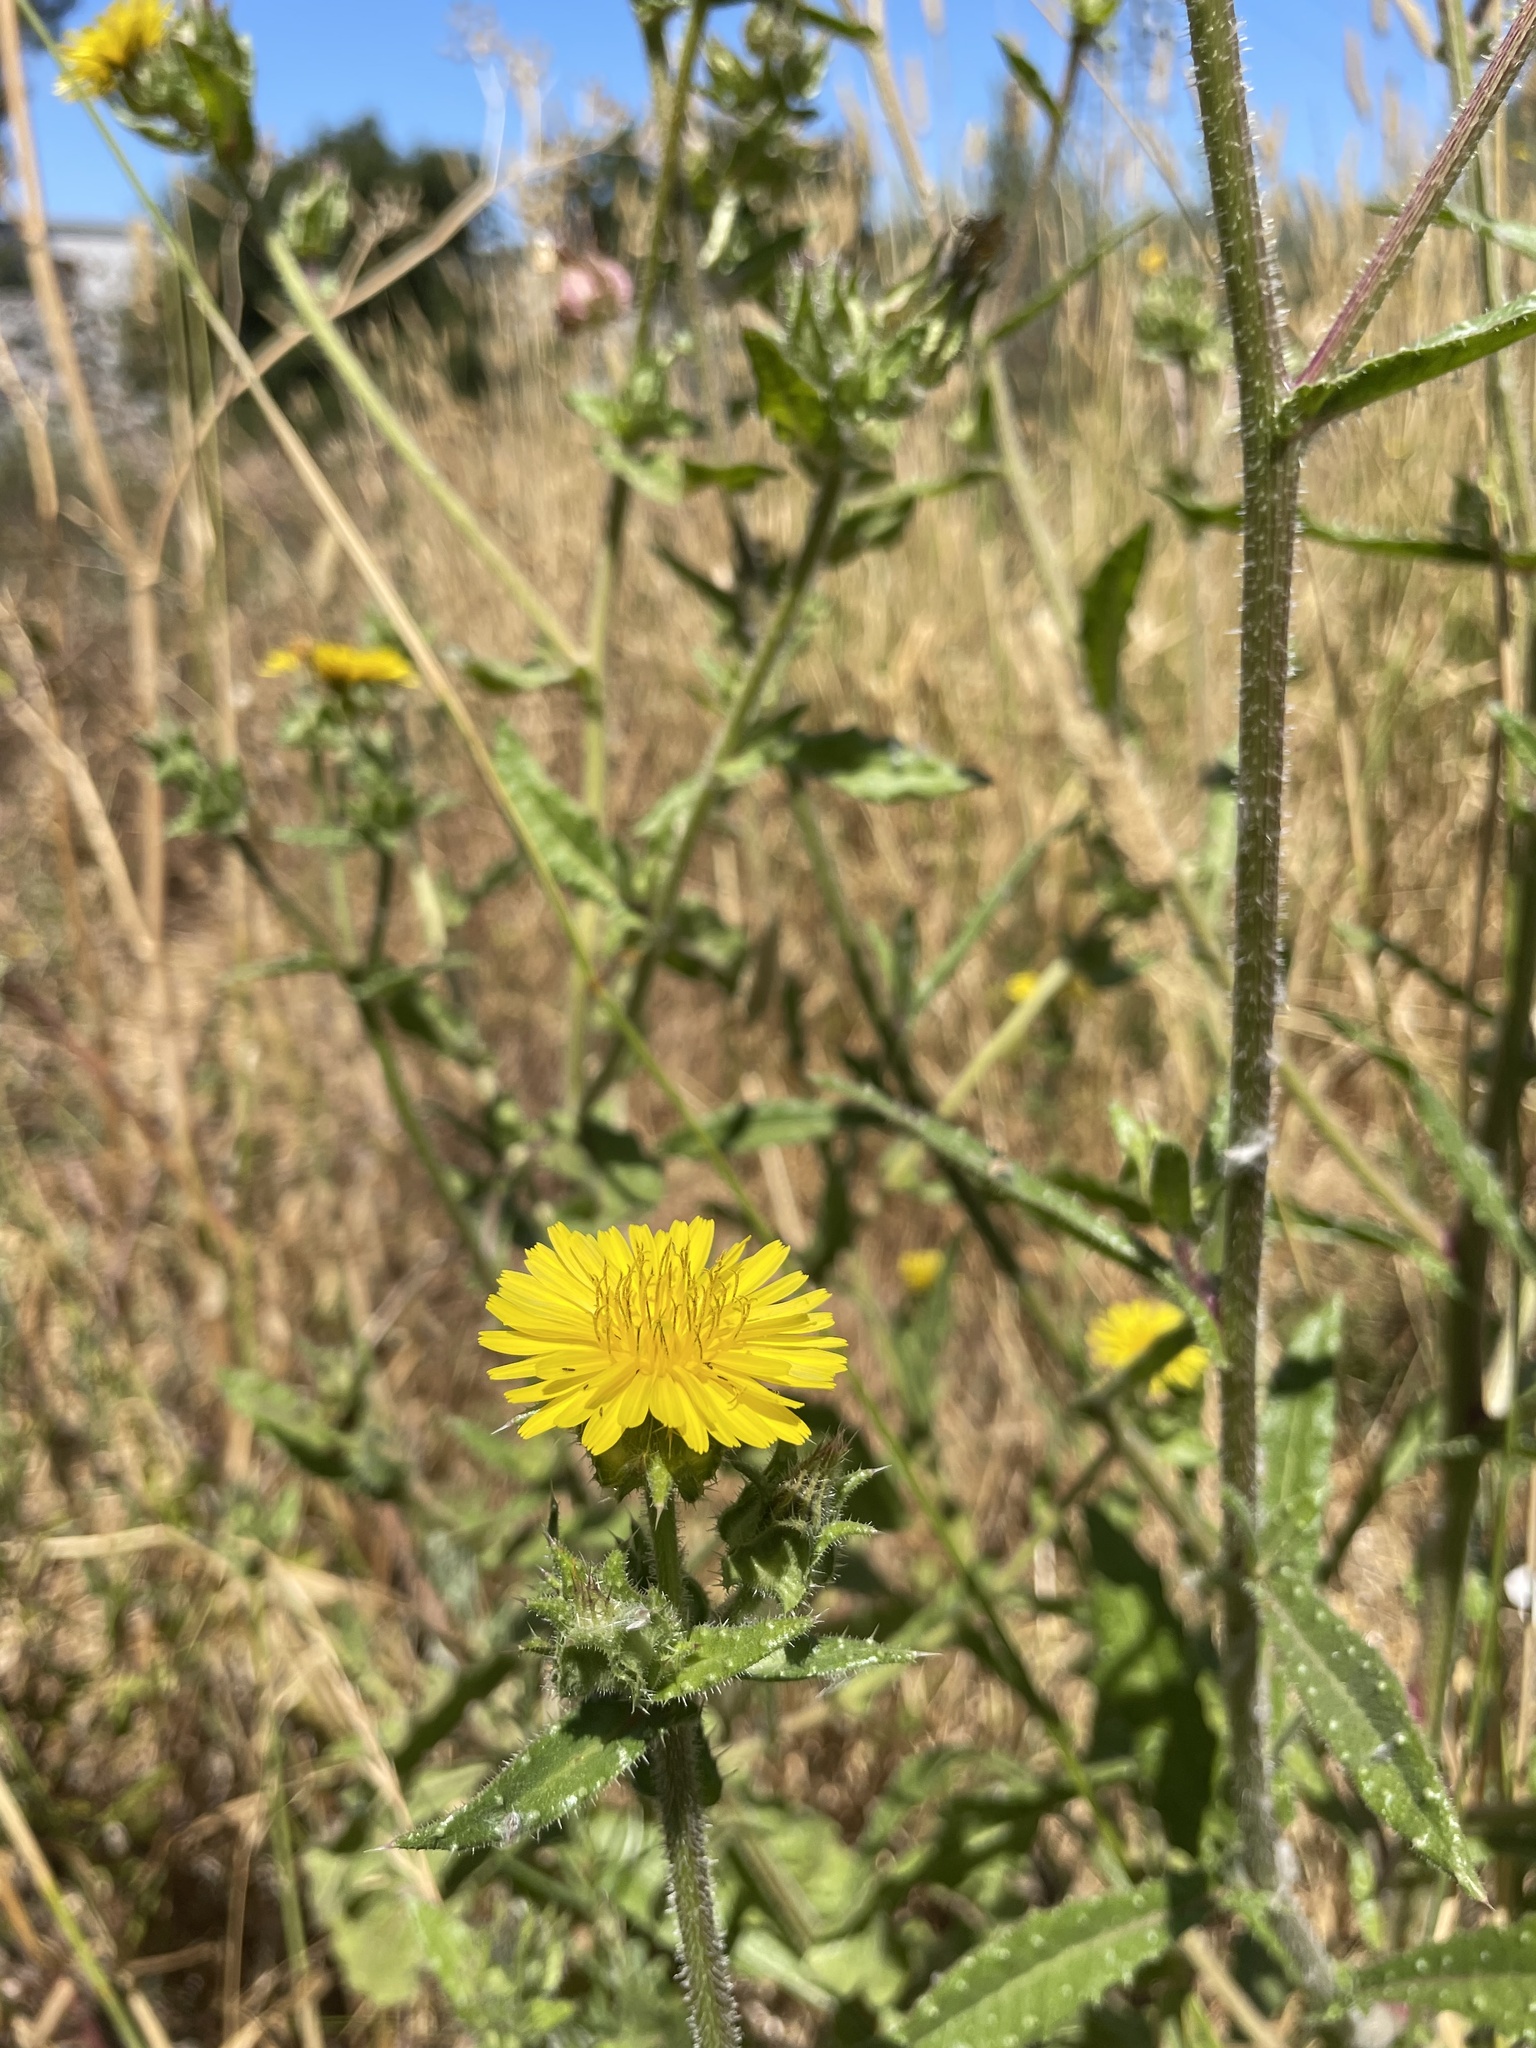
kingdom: Plantae
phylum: Tracheophyta
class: Magnoliopsida
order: Asterales
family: Asteraceae
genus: Helminthotheca
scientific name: Helminthotheca echioides
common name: Ox-tongue
